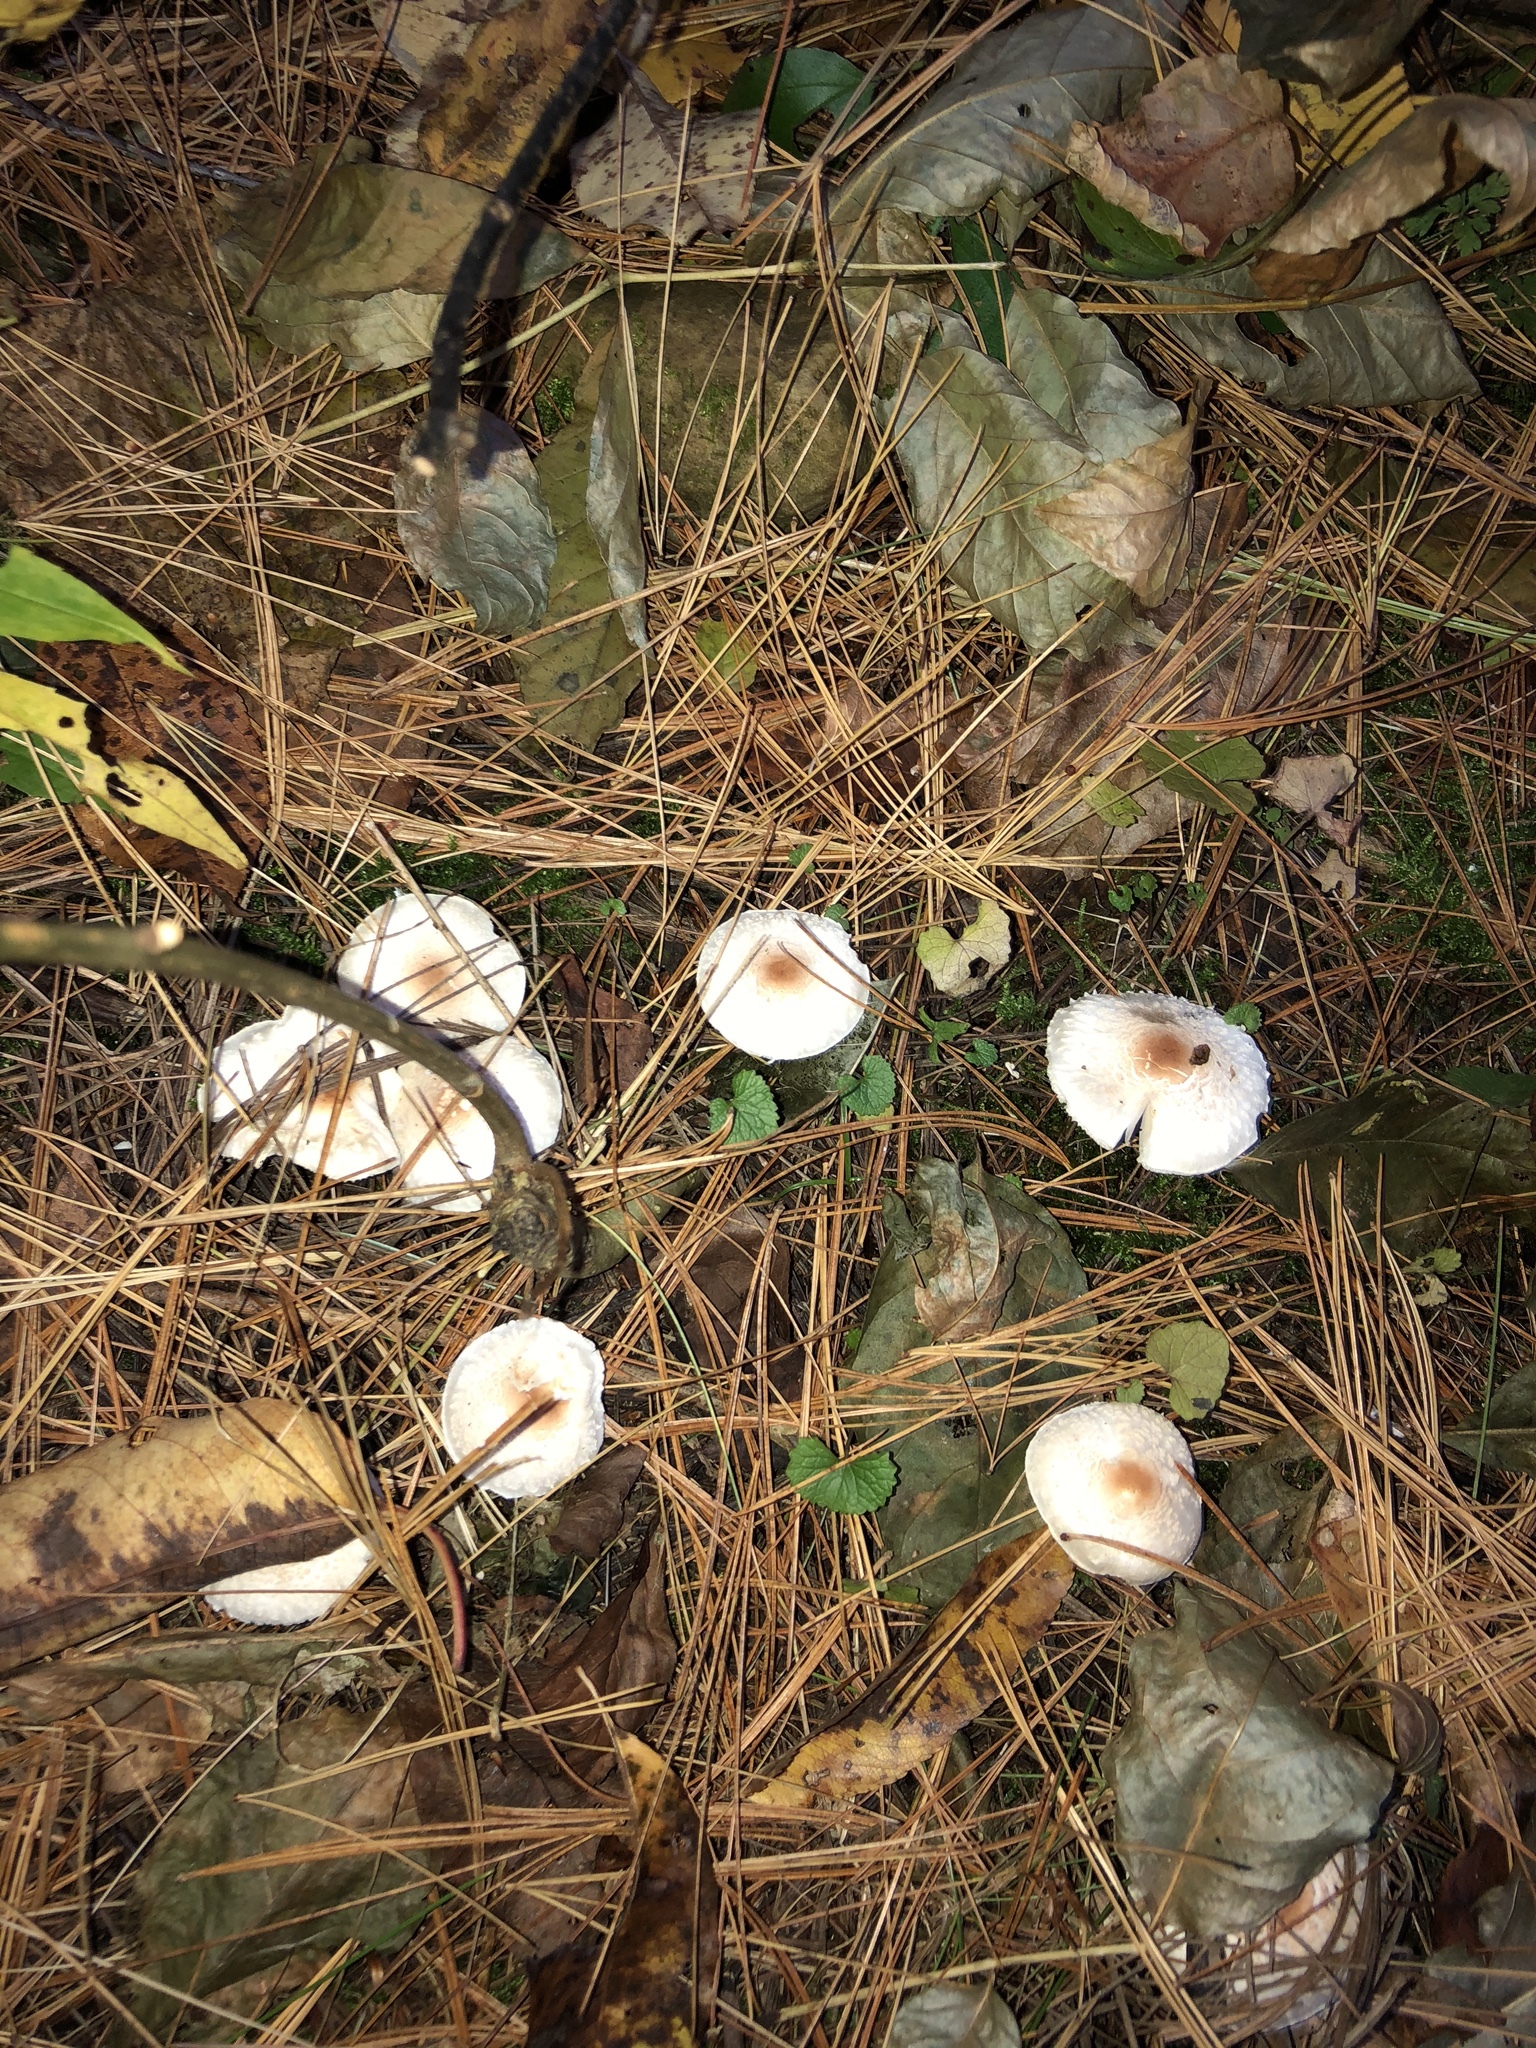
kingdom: Fungi
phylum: Basidiomycota
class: Agaricomycetes
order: Agaricales
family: Agaricaceae
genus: Lepiota
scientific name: Lepiota cristata
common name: Stinking dapperling
